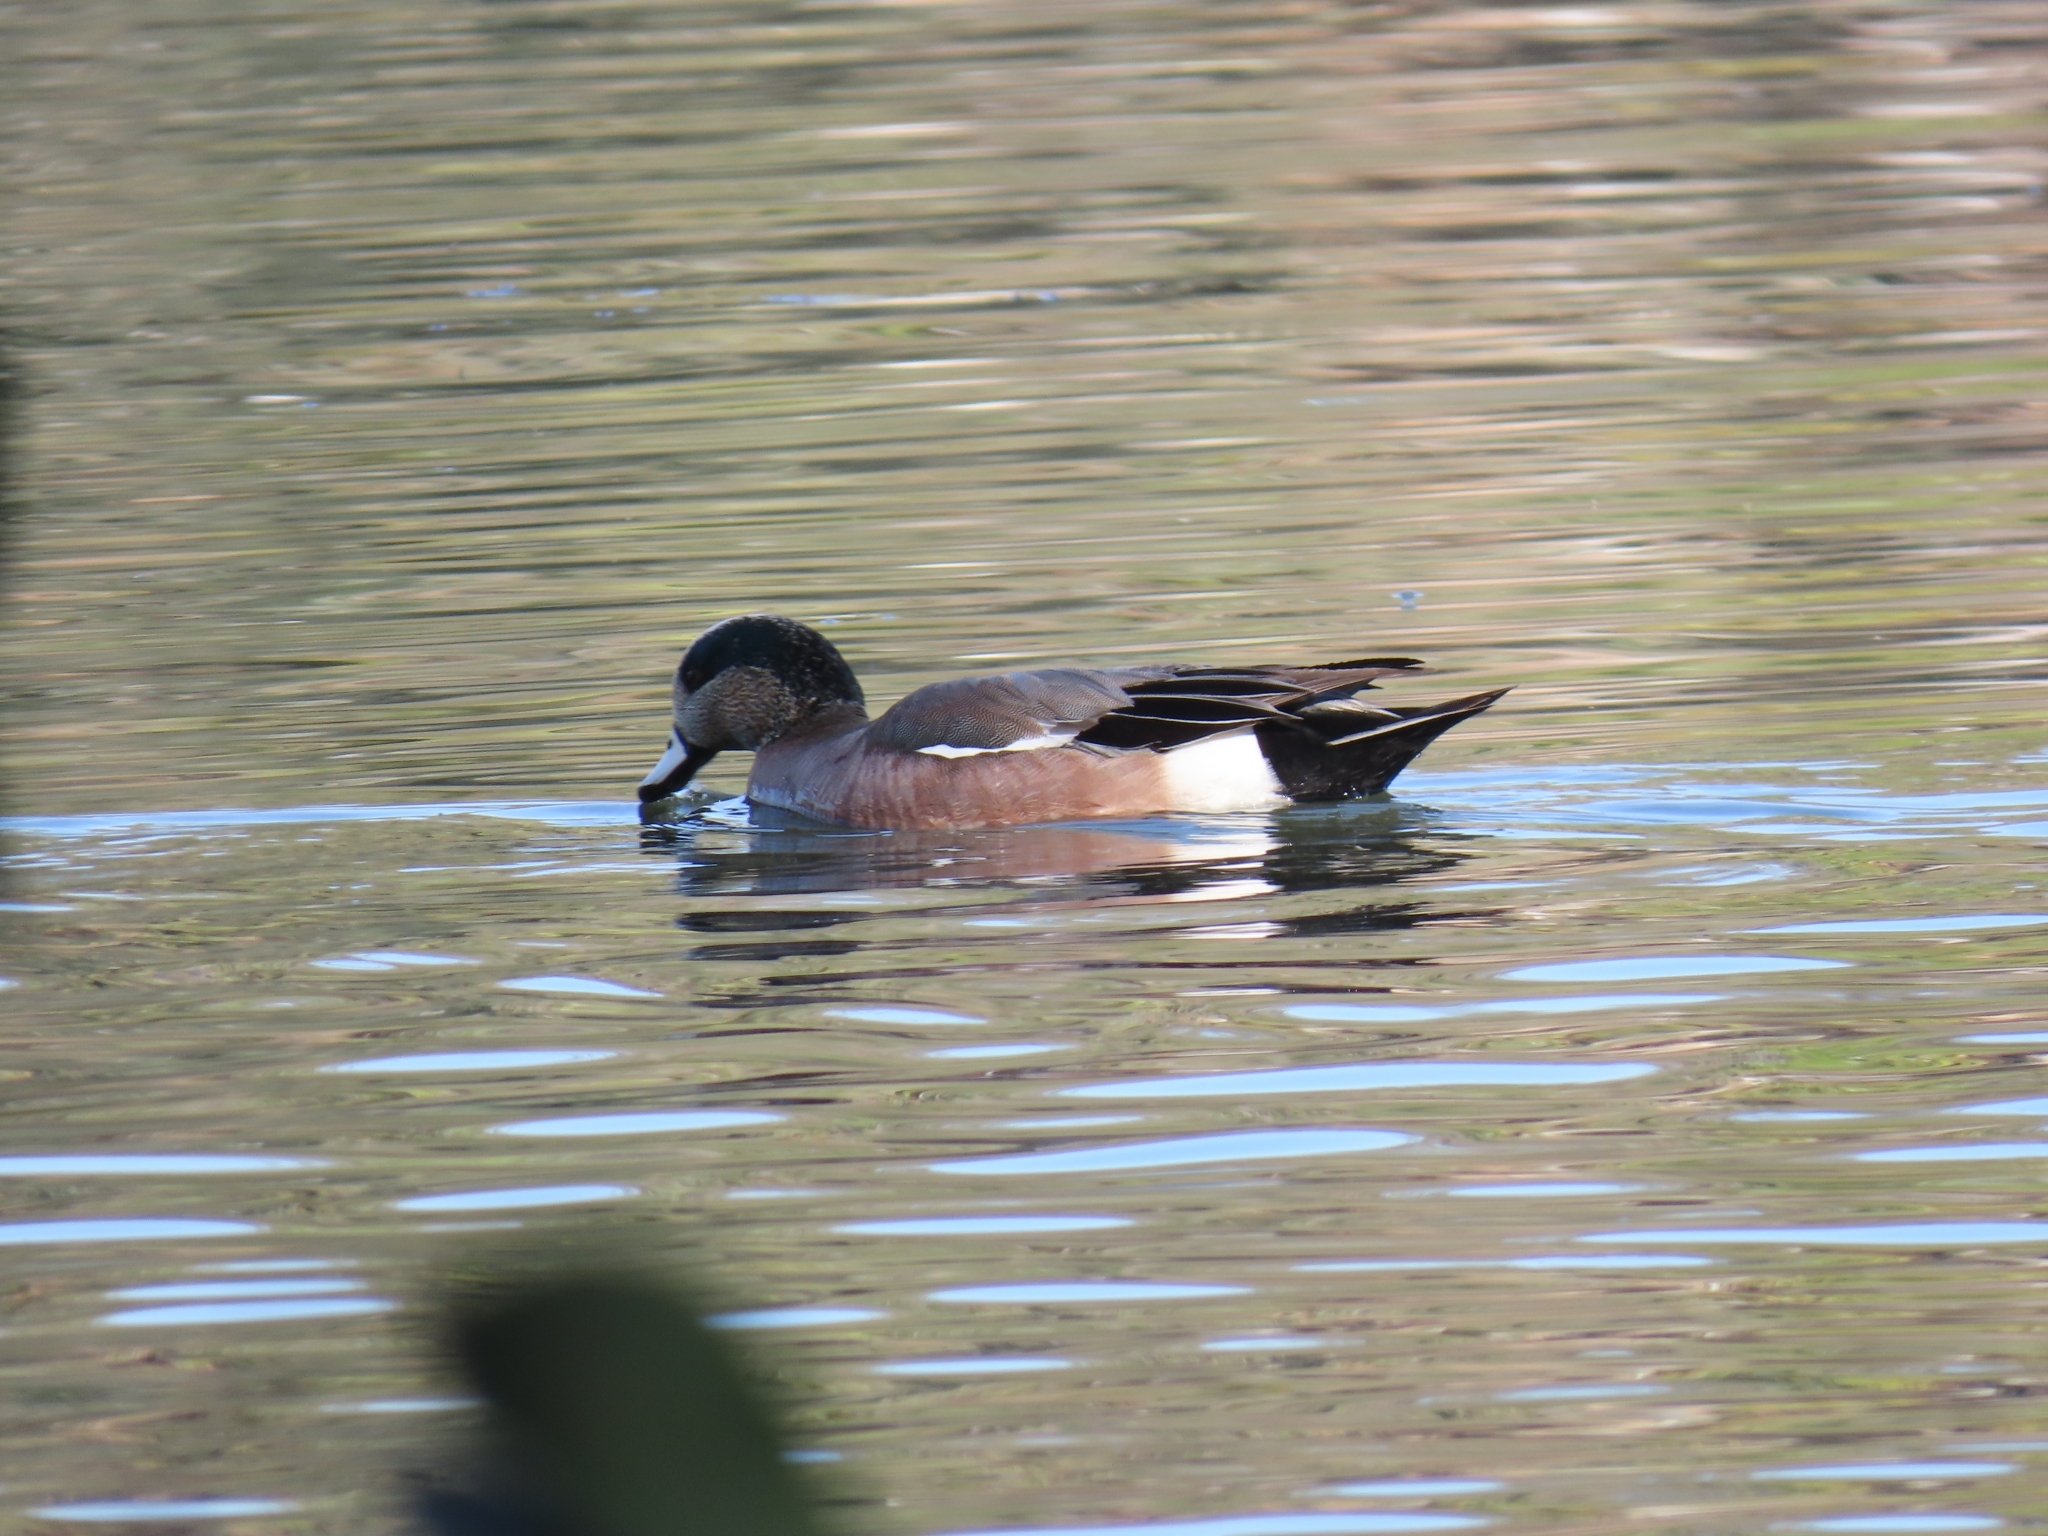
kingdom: Animalia
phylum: Chordata
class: Aves
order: Anseriformes
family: Anatidae
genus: Mareca
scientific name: Mareca americana
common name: American wigeon
